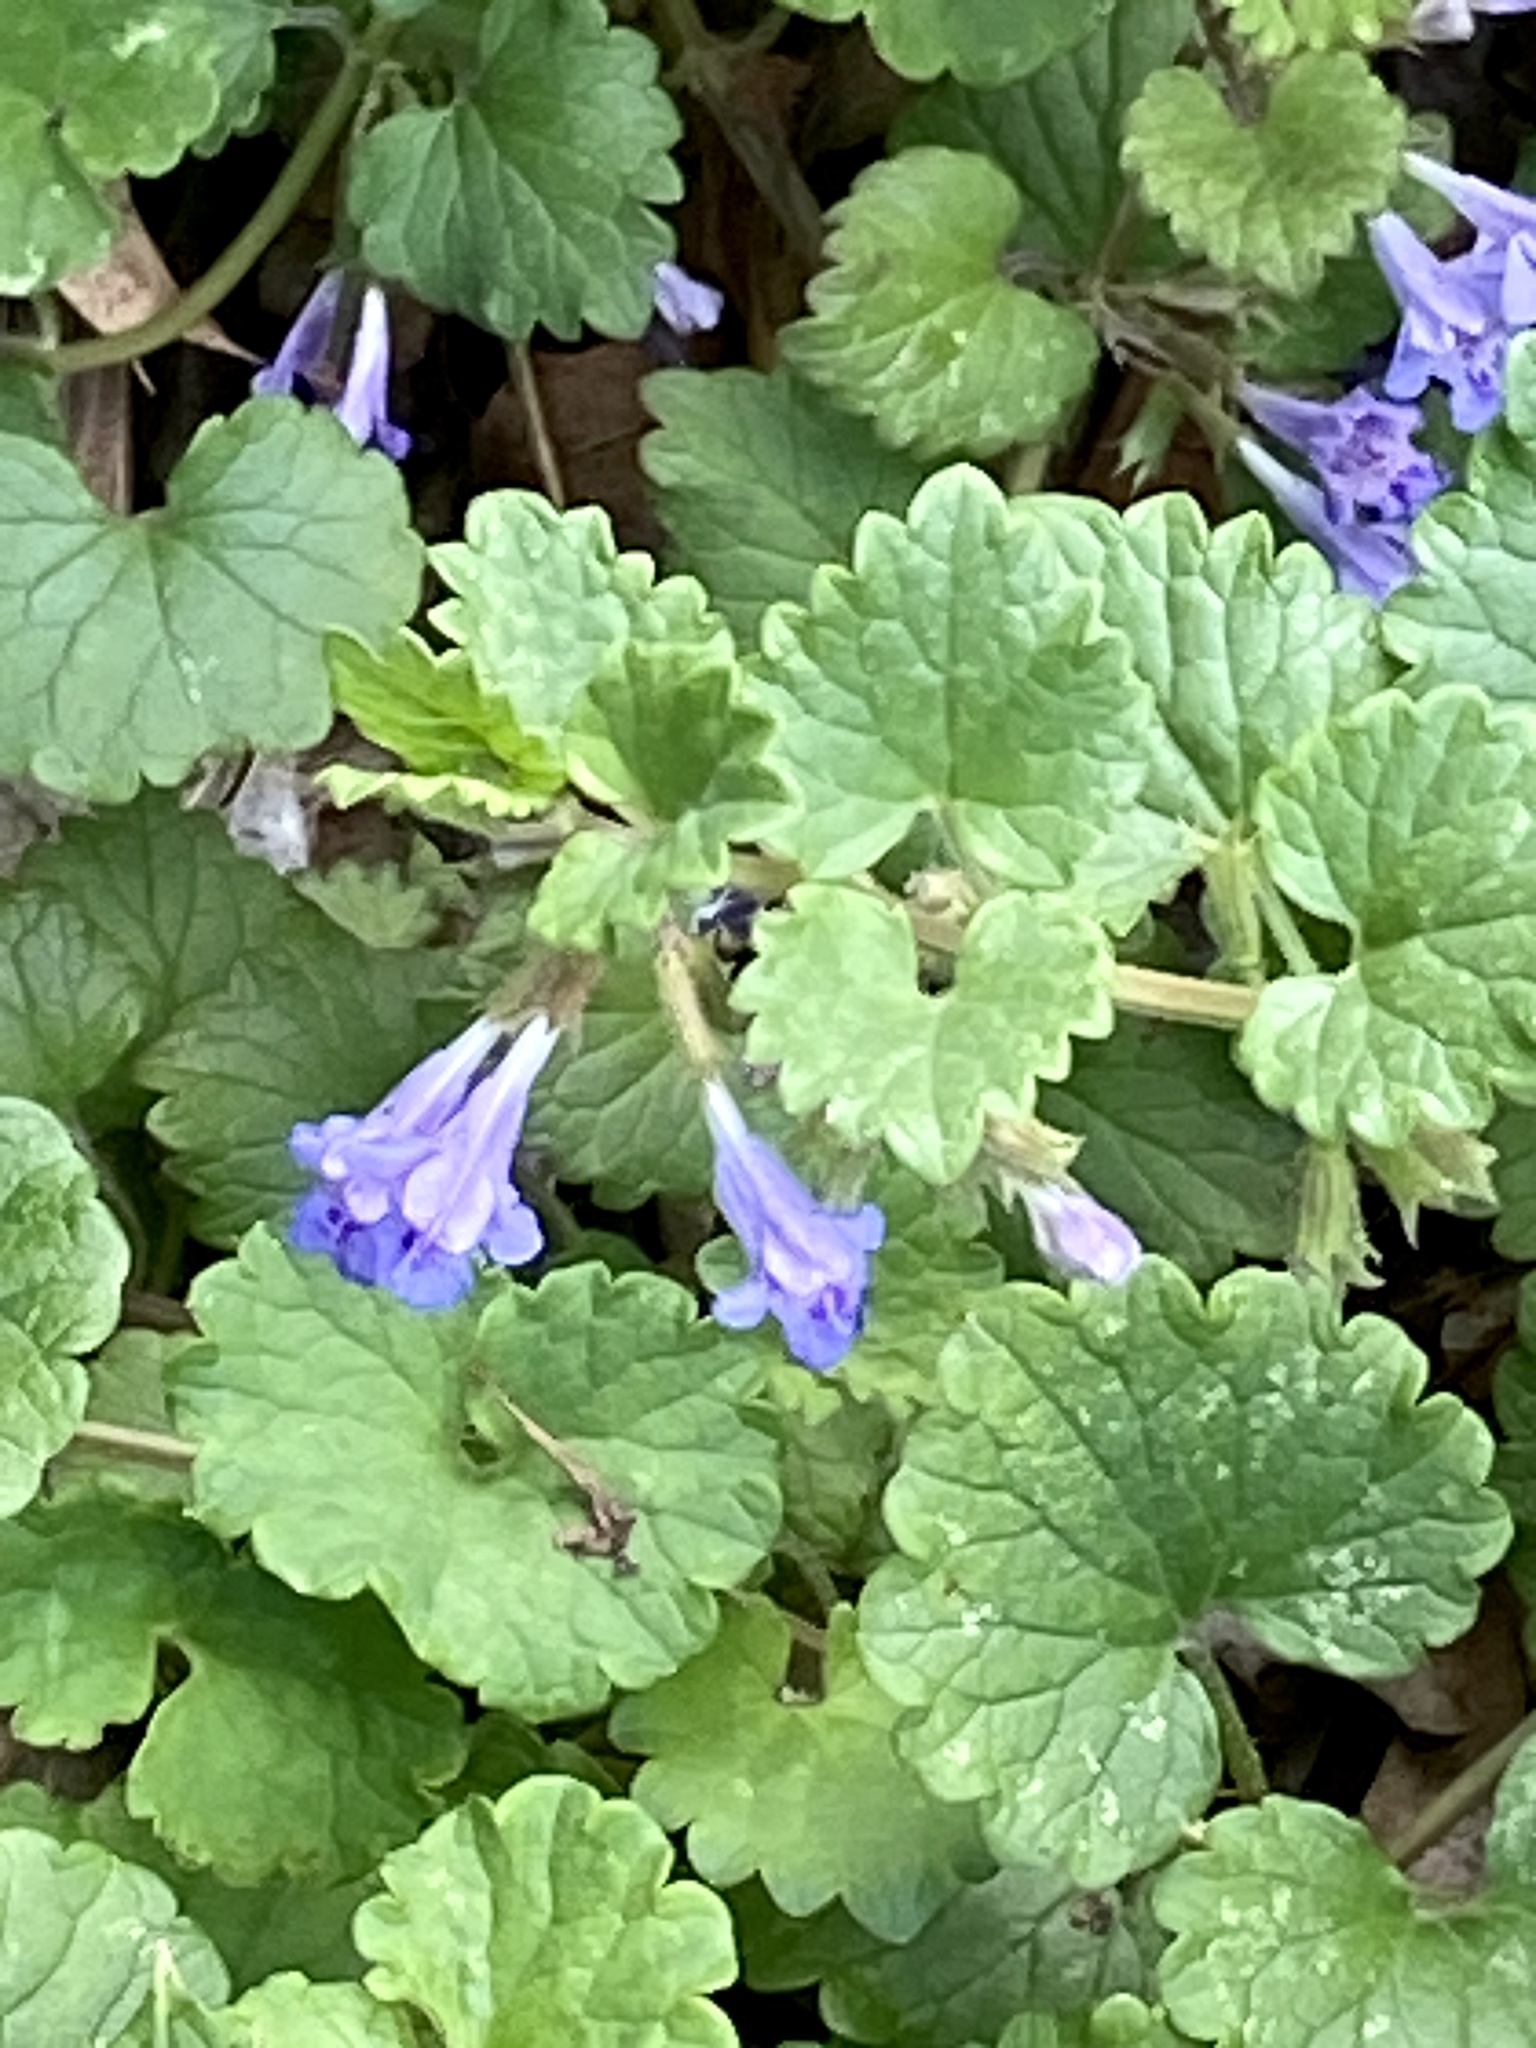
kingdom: Plantae
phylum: Tracheophyta
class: Magnoliopsida
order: Lamiales
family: Lamiaceae
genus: Glechoma
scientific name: Glechoma hederacea
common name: Ground ivy
